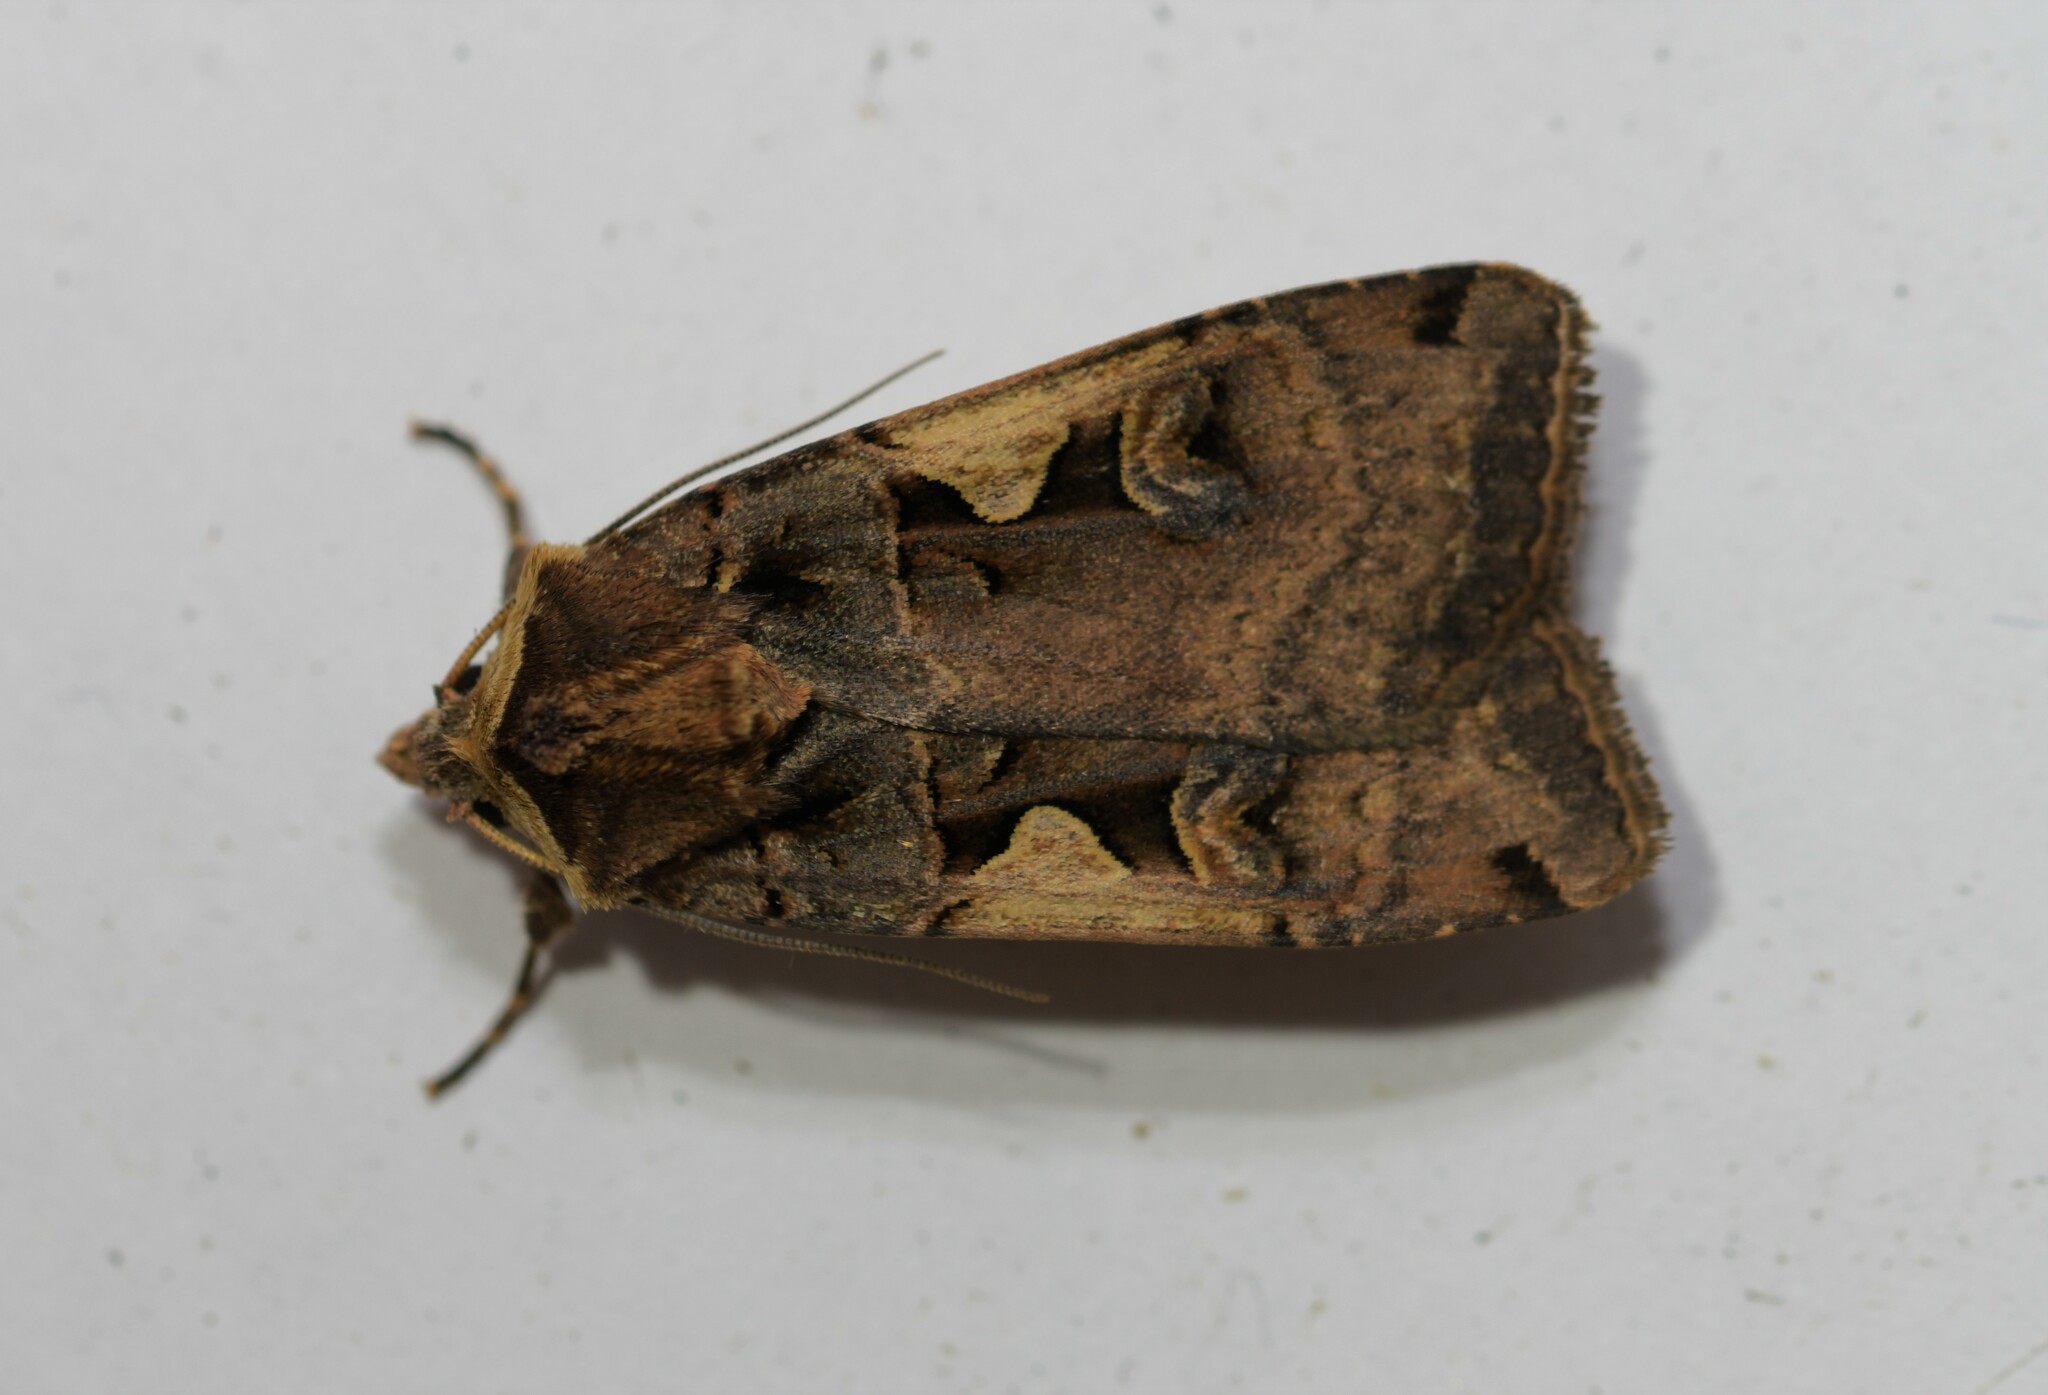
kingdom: Animalia
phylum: Arthropoda
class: Insecta
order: Lepidoptera
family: Noctuidae
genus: Xestia
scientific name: Xestia c-nigrum
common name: Setaceous hebrew character
